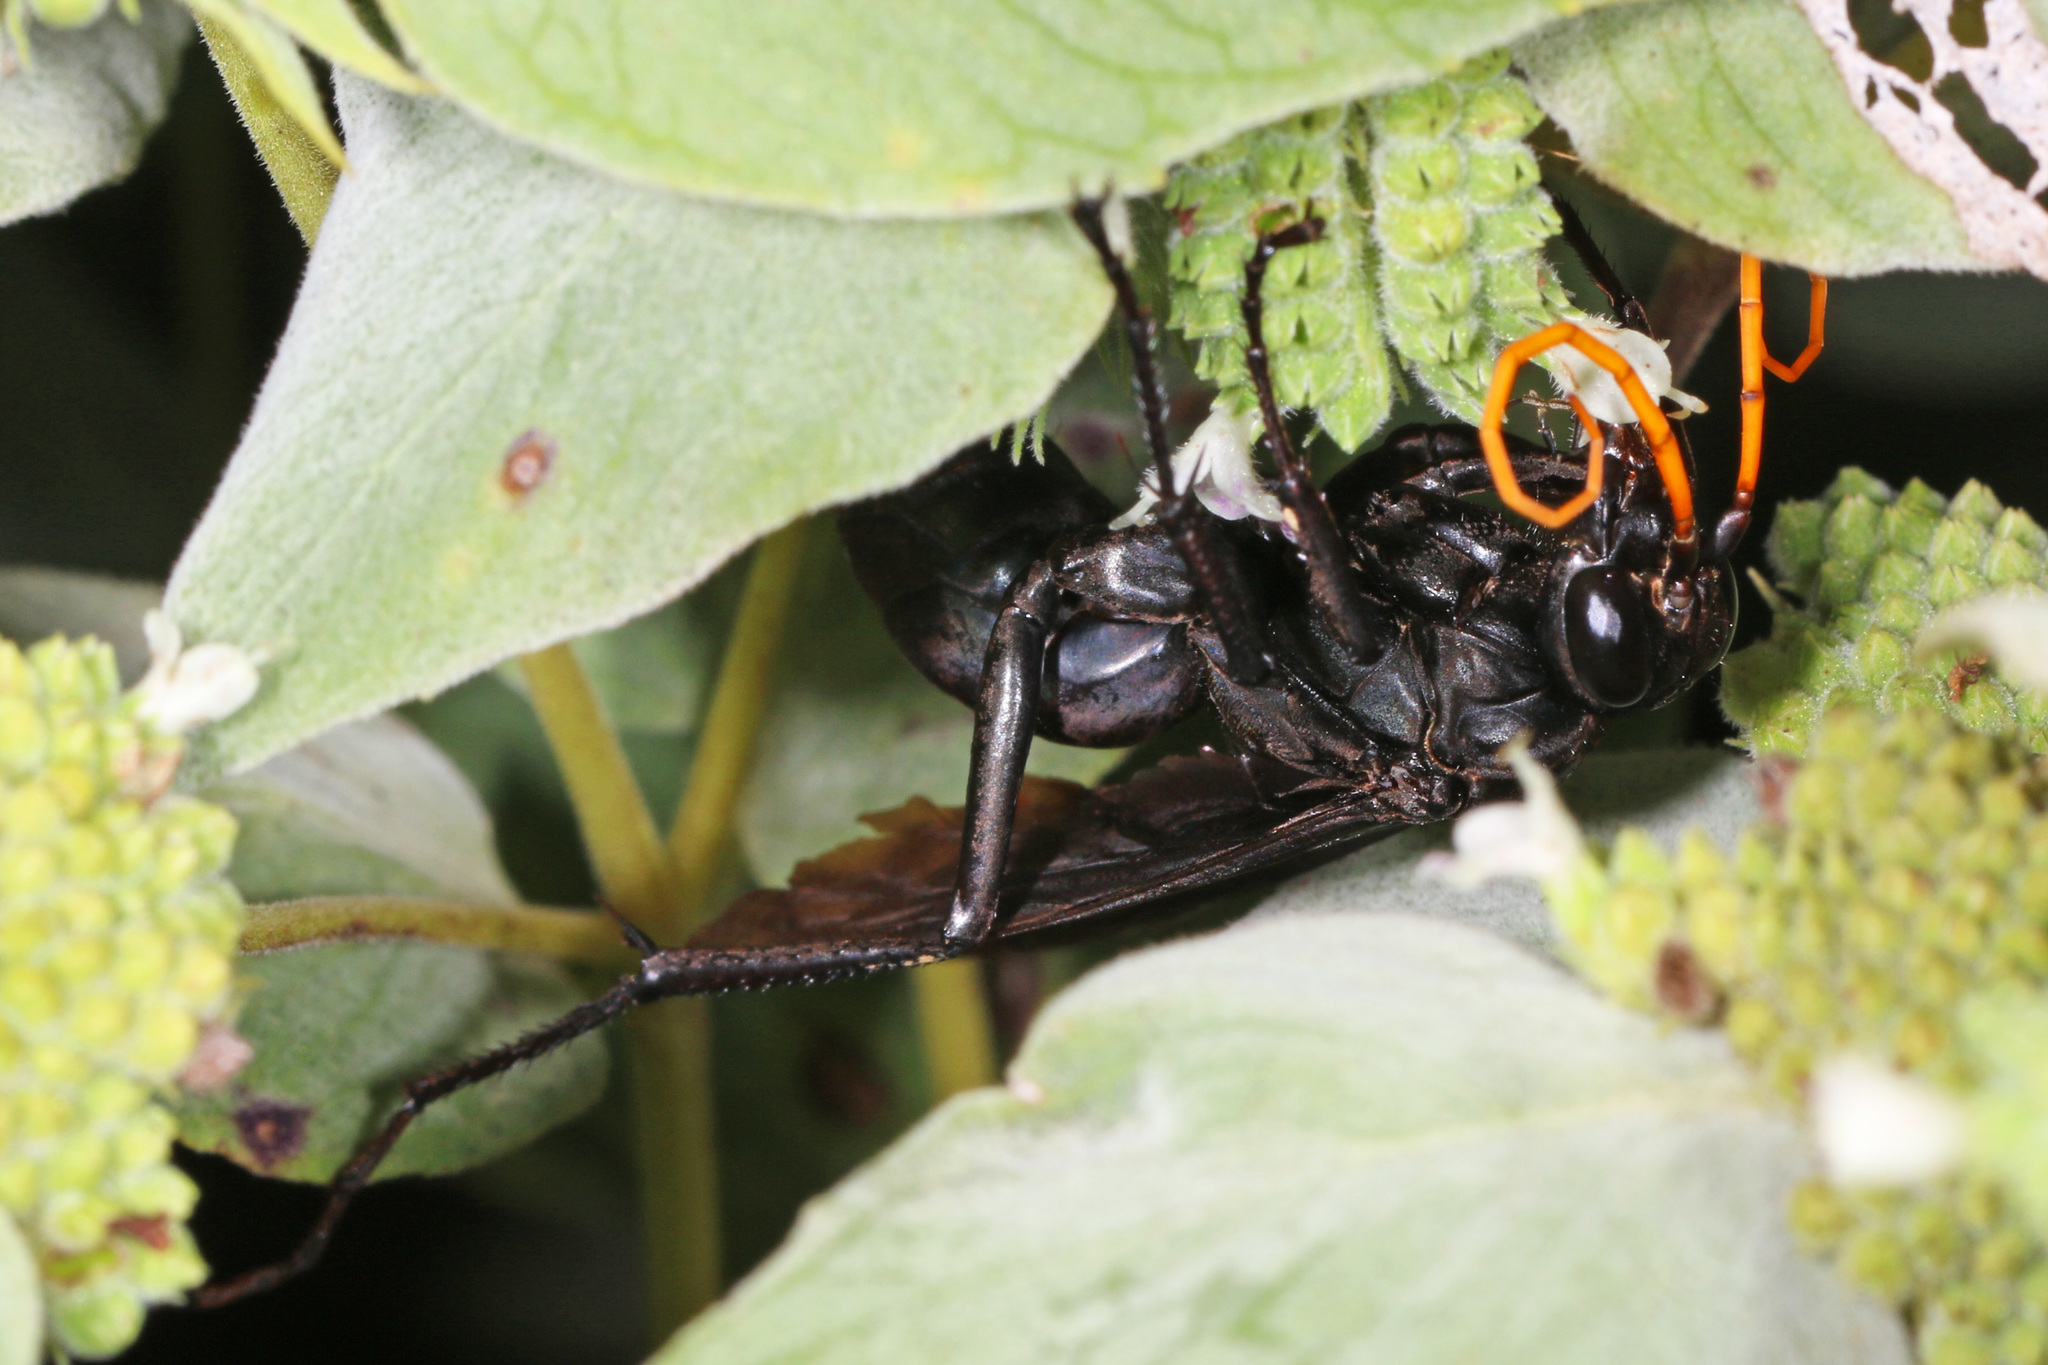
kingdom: Animalia
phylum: Arthropoda
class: Insecta
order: Hymenoptera
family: Pompilidae
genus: Entypus
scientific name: Entypus fulvicornis
